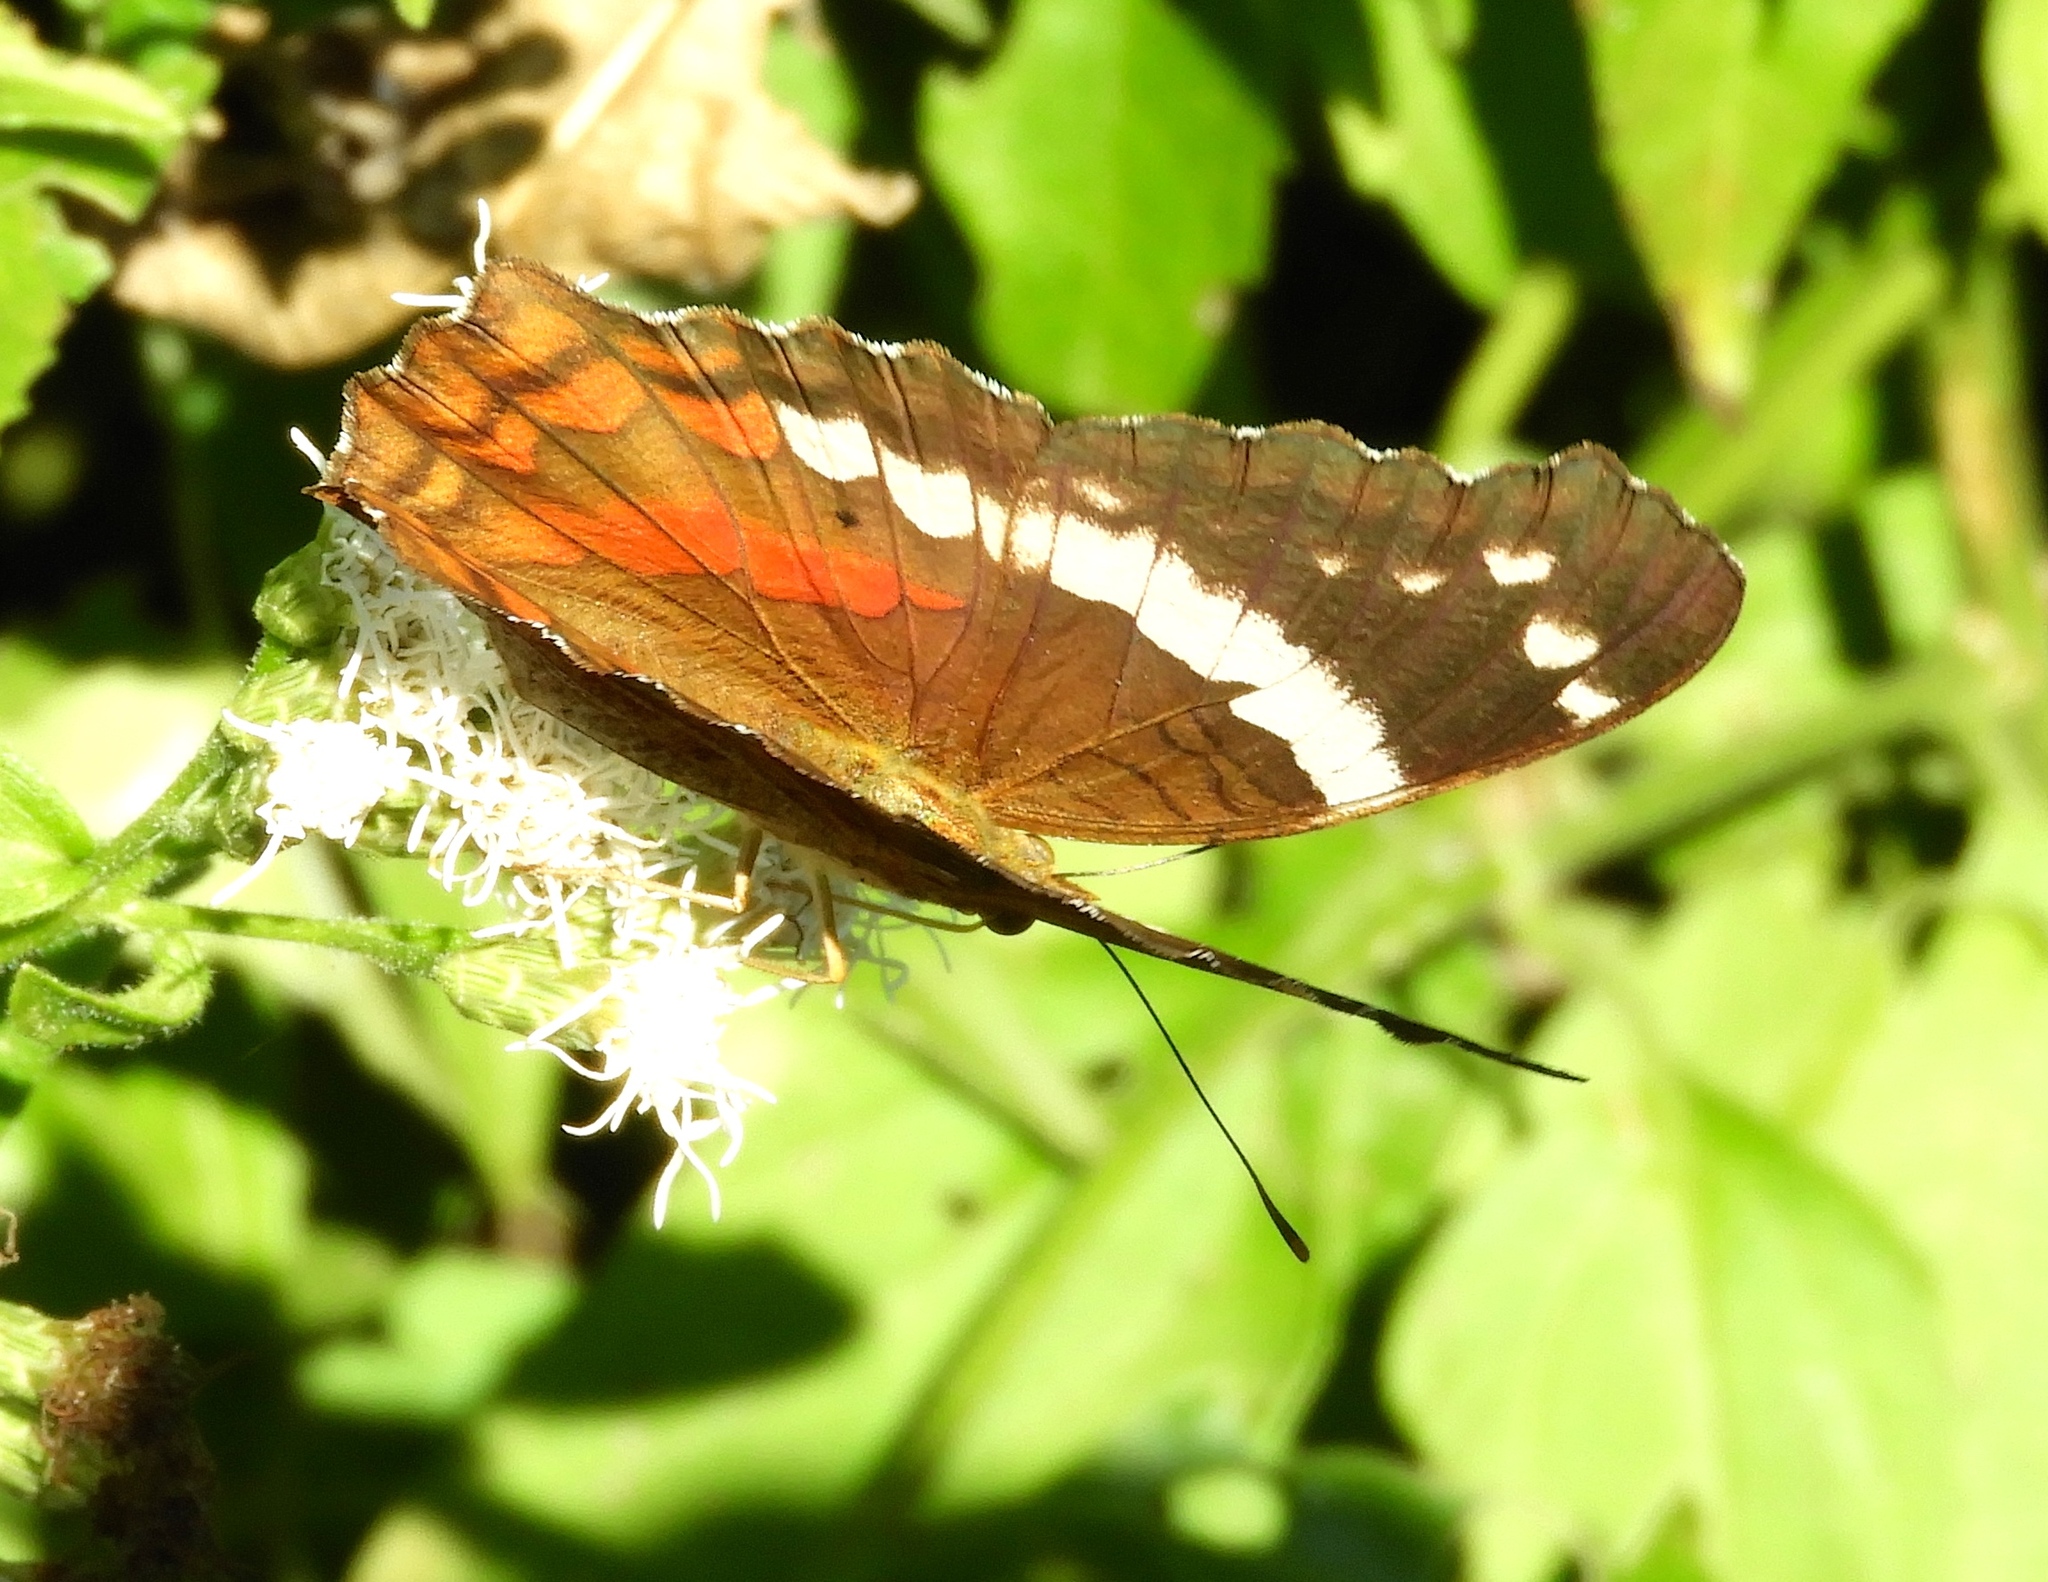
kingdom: Animalia
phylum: Arthropoda
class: Insecta
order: Lepidoptera
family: Nymphalidae
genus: Anartia
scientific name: Anartia fatima
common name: Banded peacock
